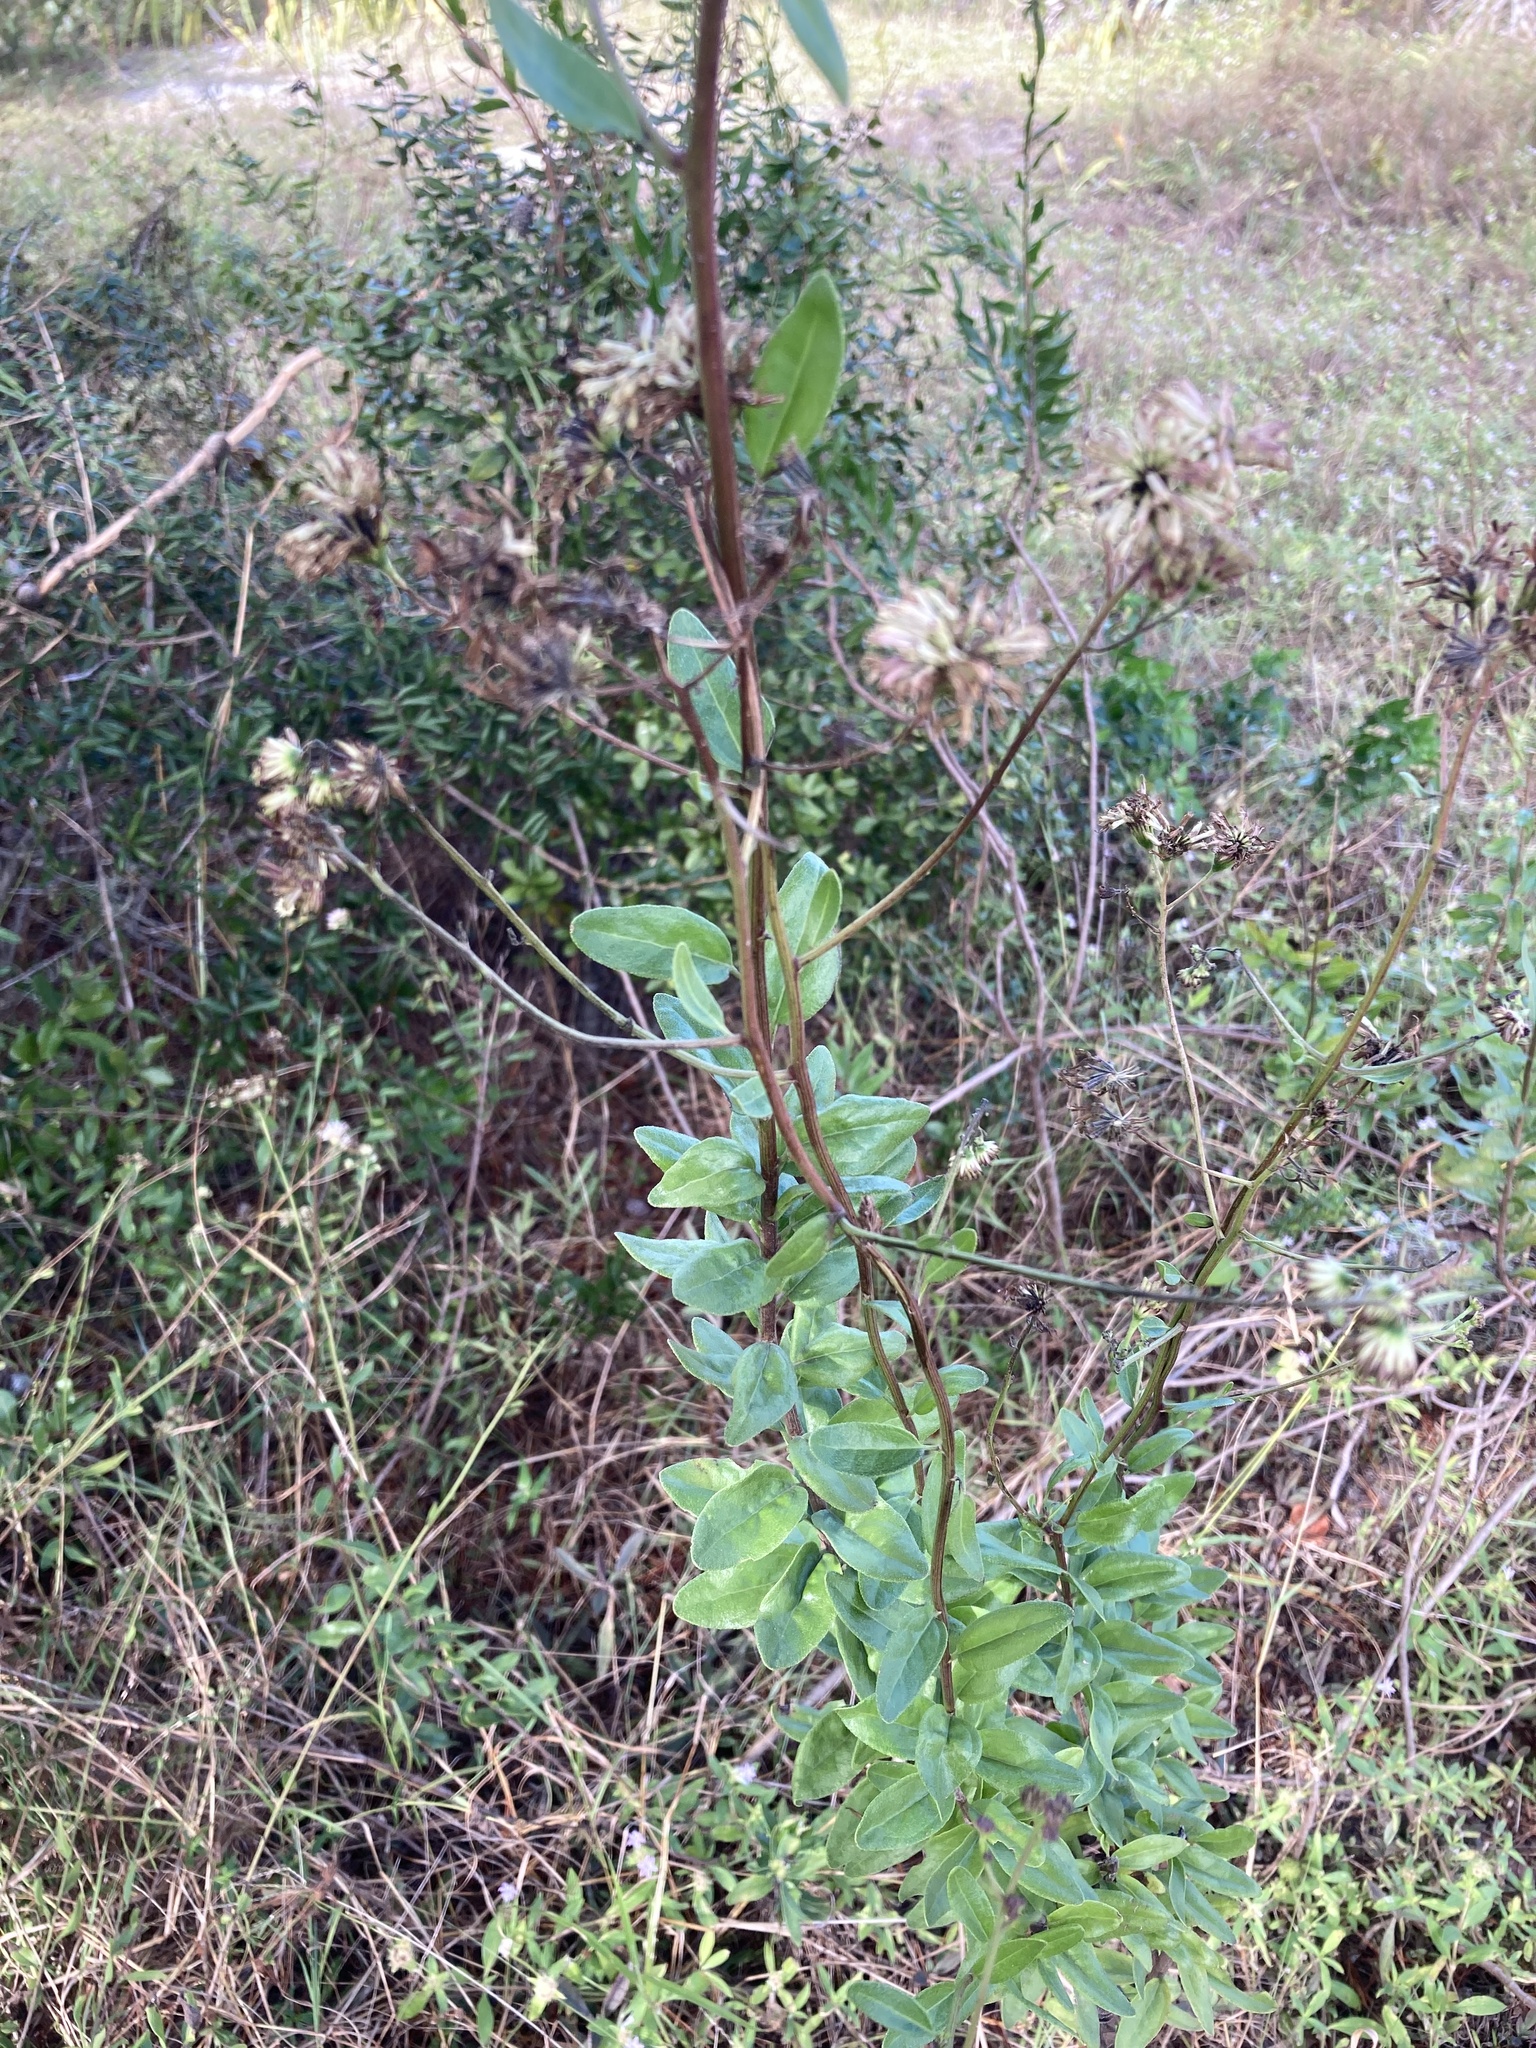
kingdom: Plantae
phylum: Tracheophyta
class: Magnoliopsida
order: Asterales
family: Asteraceae
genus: Palafoxia
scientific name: Palafoxia feayi
